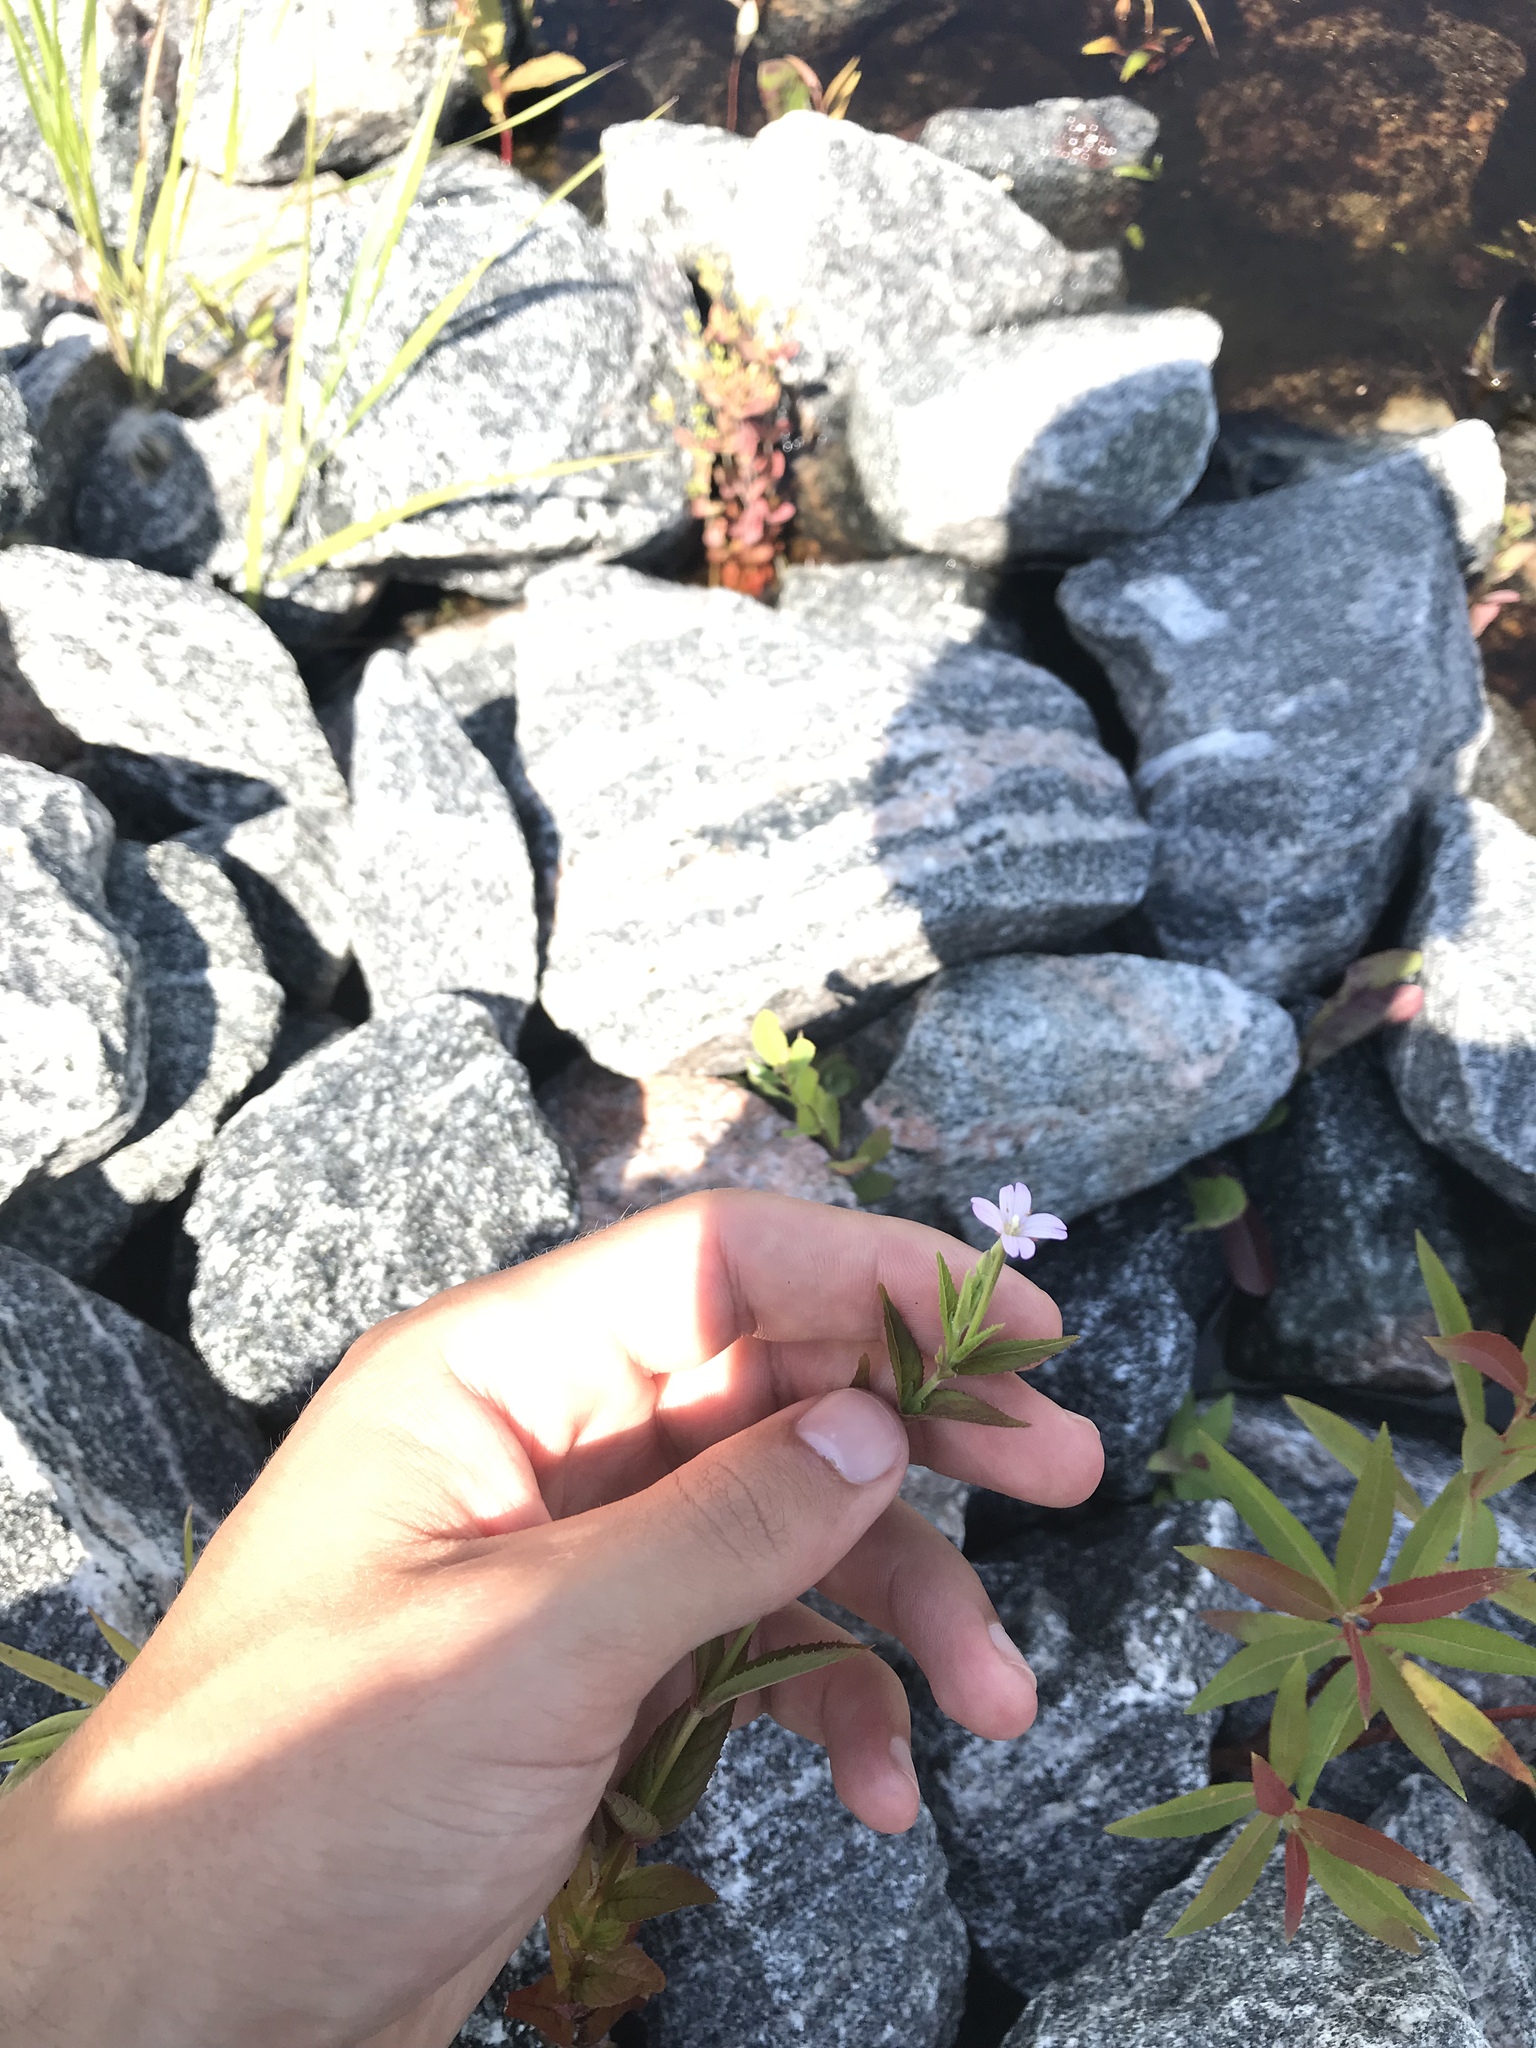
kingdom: Plantae
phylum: Tracheophyta
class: Magnoliopsida
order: Myrtales
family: Onagraceae
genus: Epilobium
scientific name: Epilobium ciliatum
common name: American willowherb
